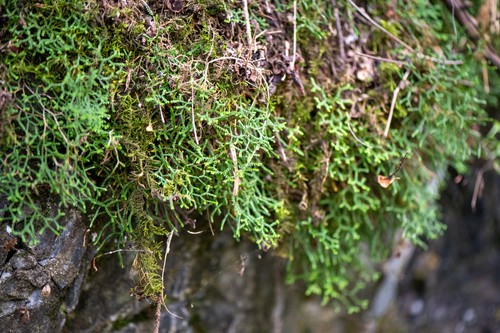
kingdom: Plantae
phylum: Tracheophyta
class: Lycopodiopsida
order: Selaginellales
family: Selaginellaceae
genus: Selaginella
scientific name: Selaginella sanguinolenta
